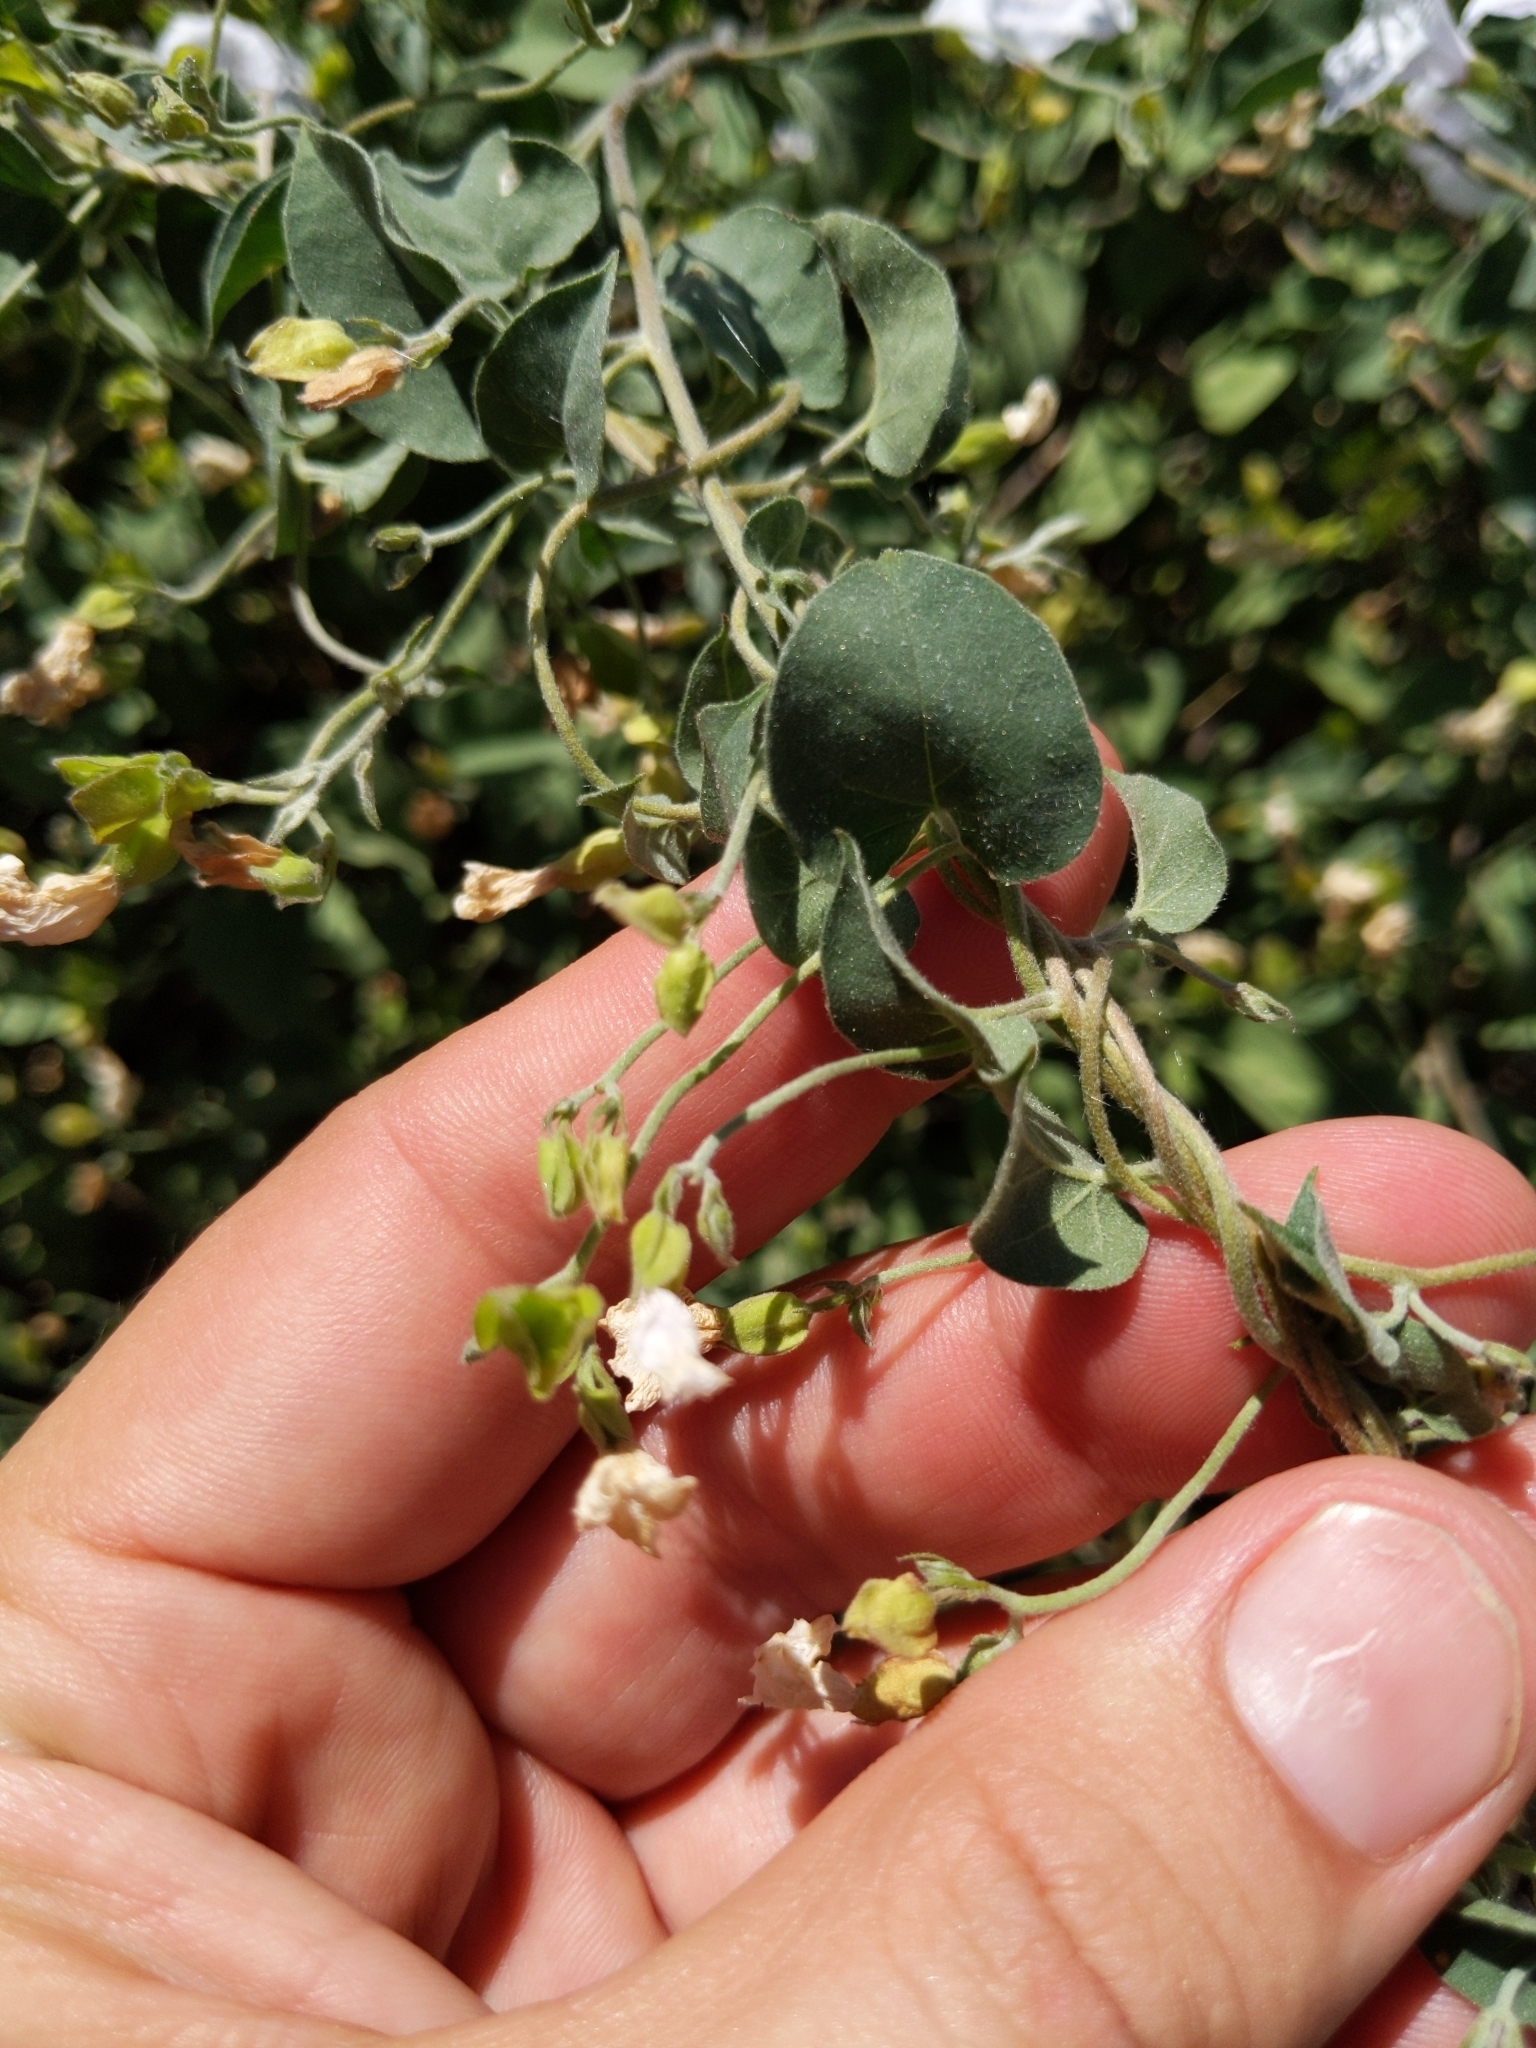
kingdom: Plantae
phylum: Tracheophyta
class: Magnoliopsida
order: Solanales
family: Convolvulaceae
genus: Jacquemontia
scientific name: Jacquemontia pringlei
